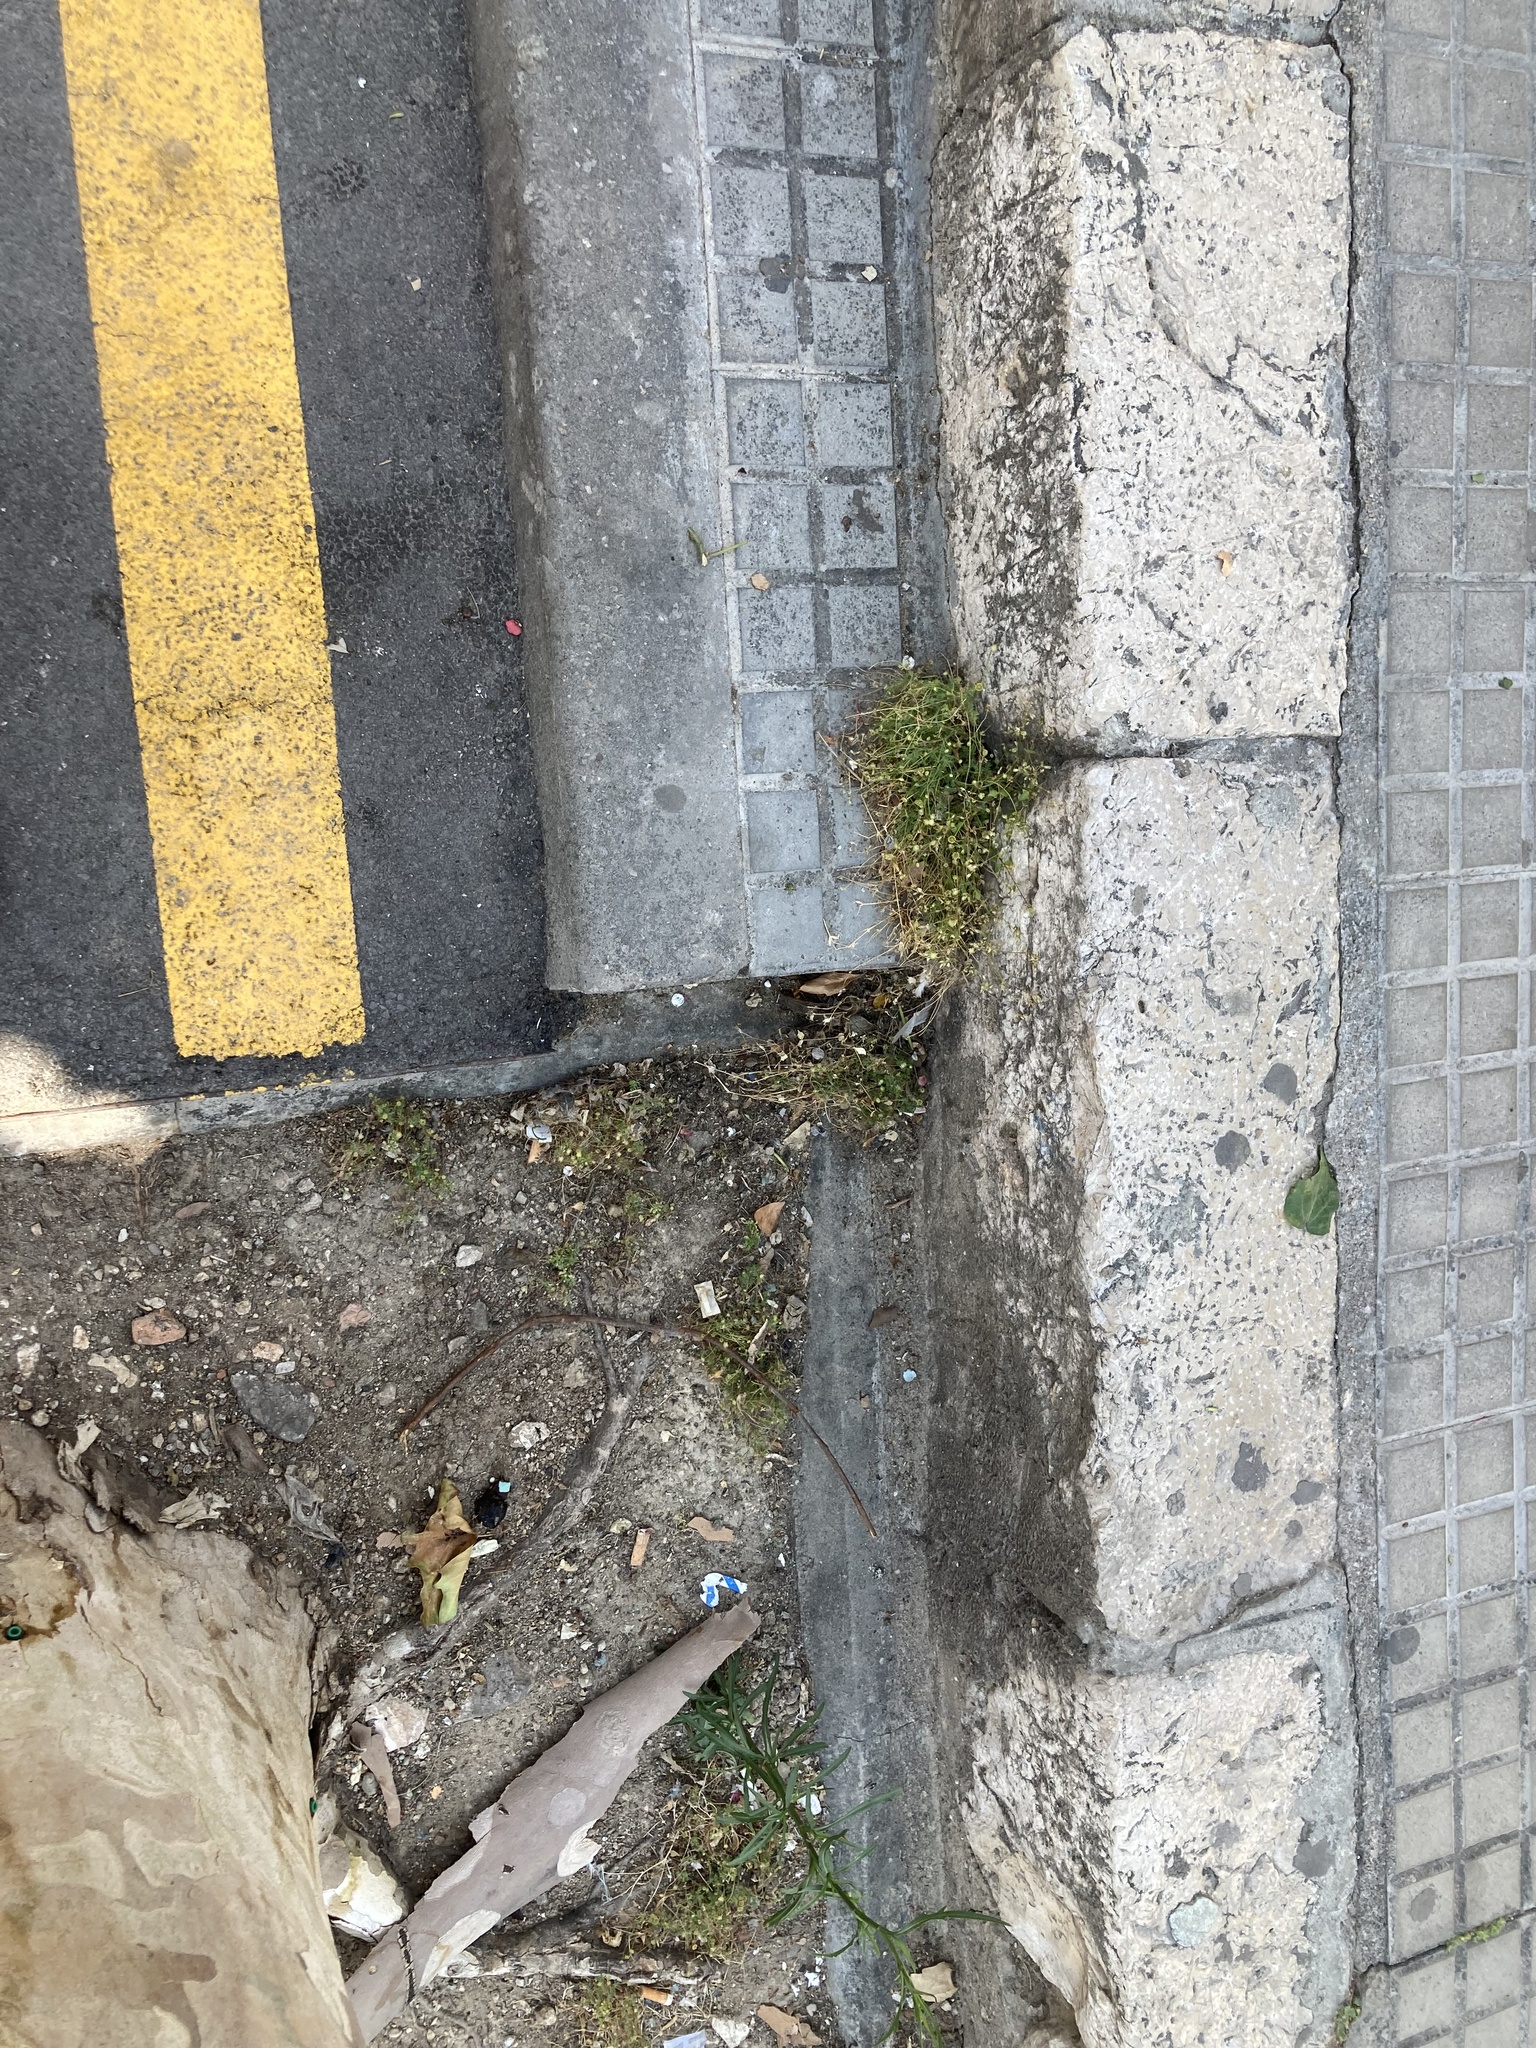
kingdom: Plantae
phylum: Tracheophyta
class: Magnoliopsida
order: Asterales
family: Asteraceae
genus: Cotula
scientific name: Cotula australis
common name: Australian waterbuttons
